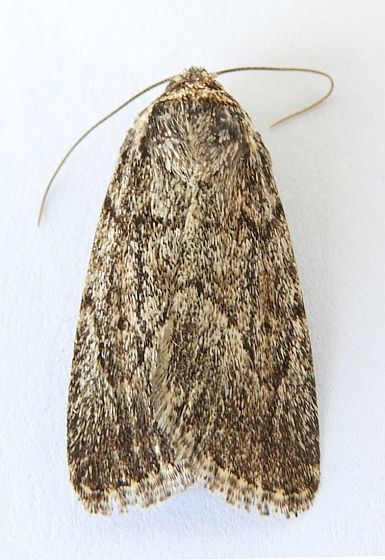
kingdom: Animalia
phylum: Arthropoda
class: Insecta
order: Lepidoptera
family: Noctuidae
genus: Sympistis
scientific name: Sympistis punctilinea
